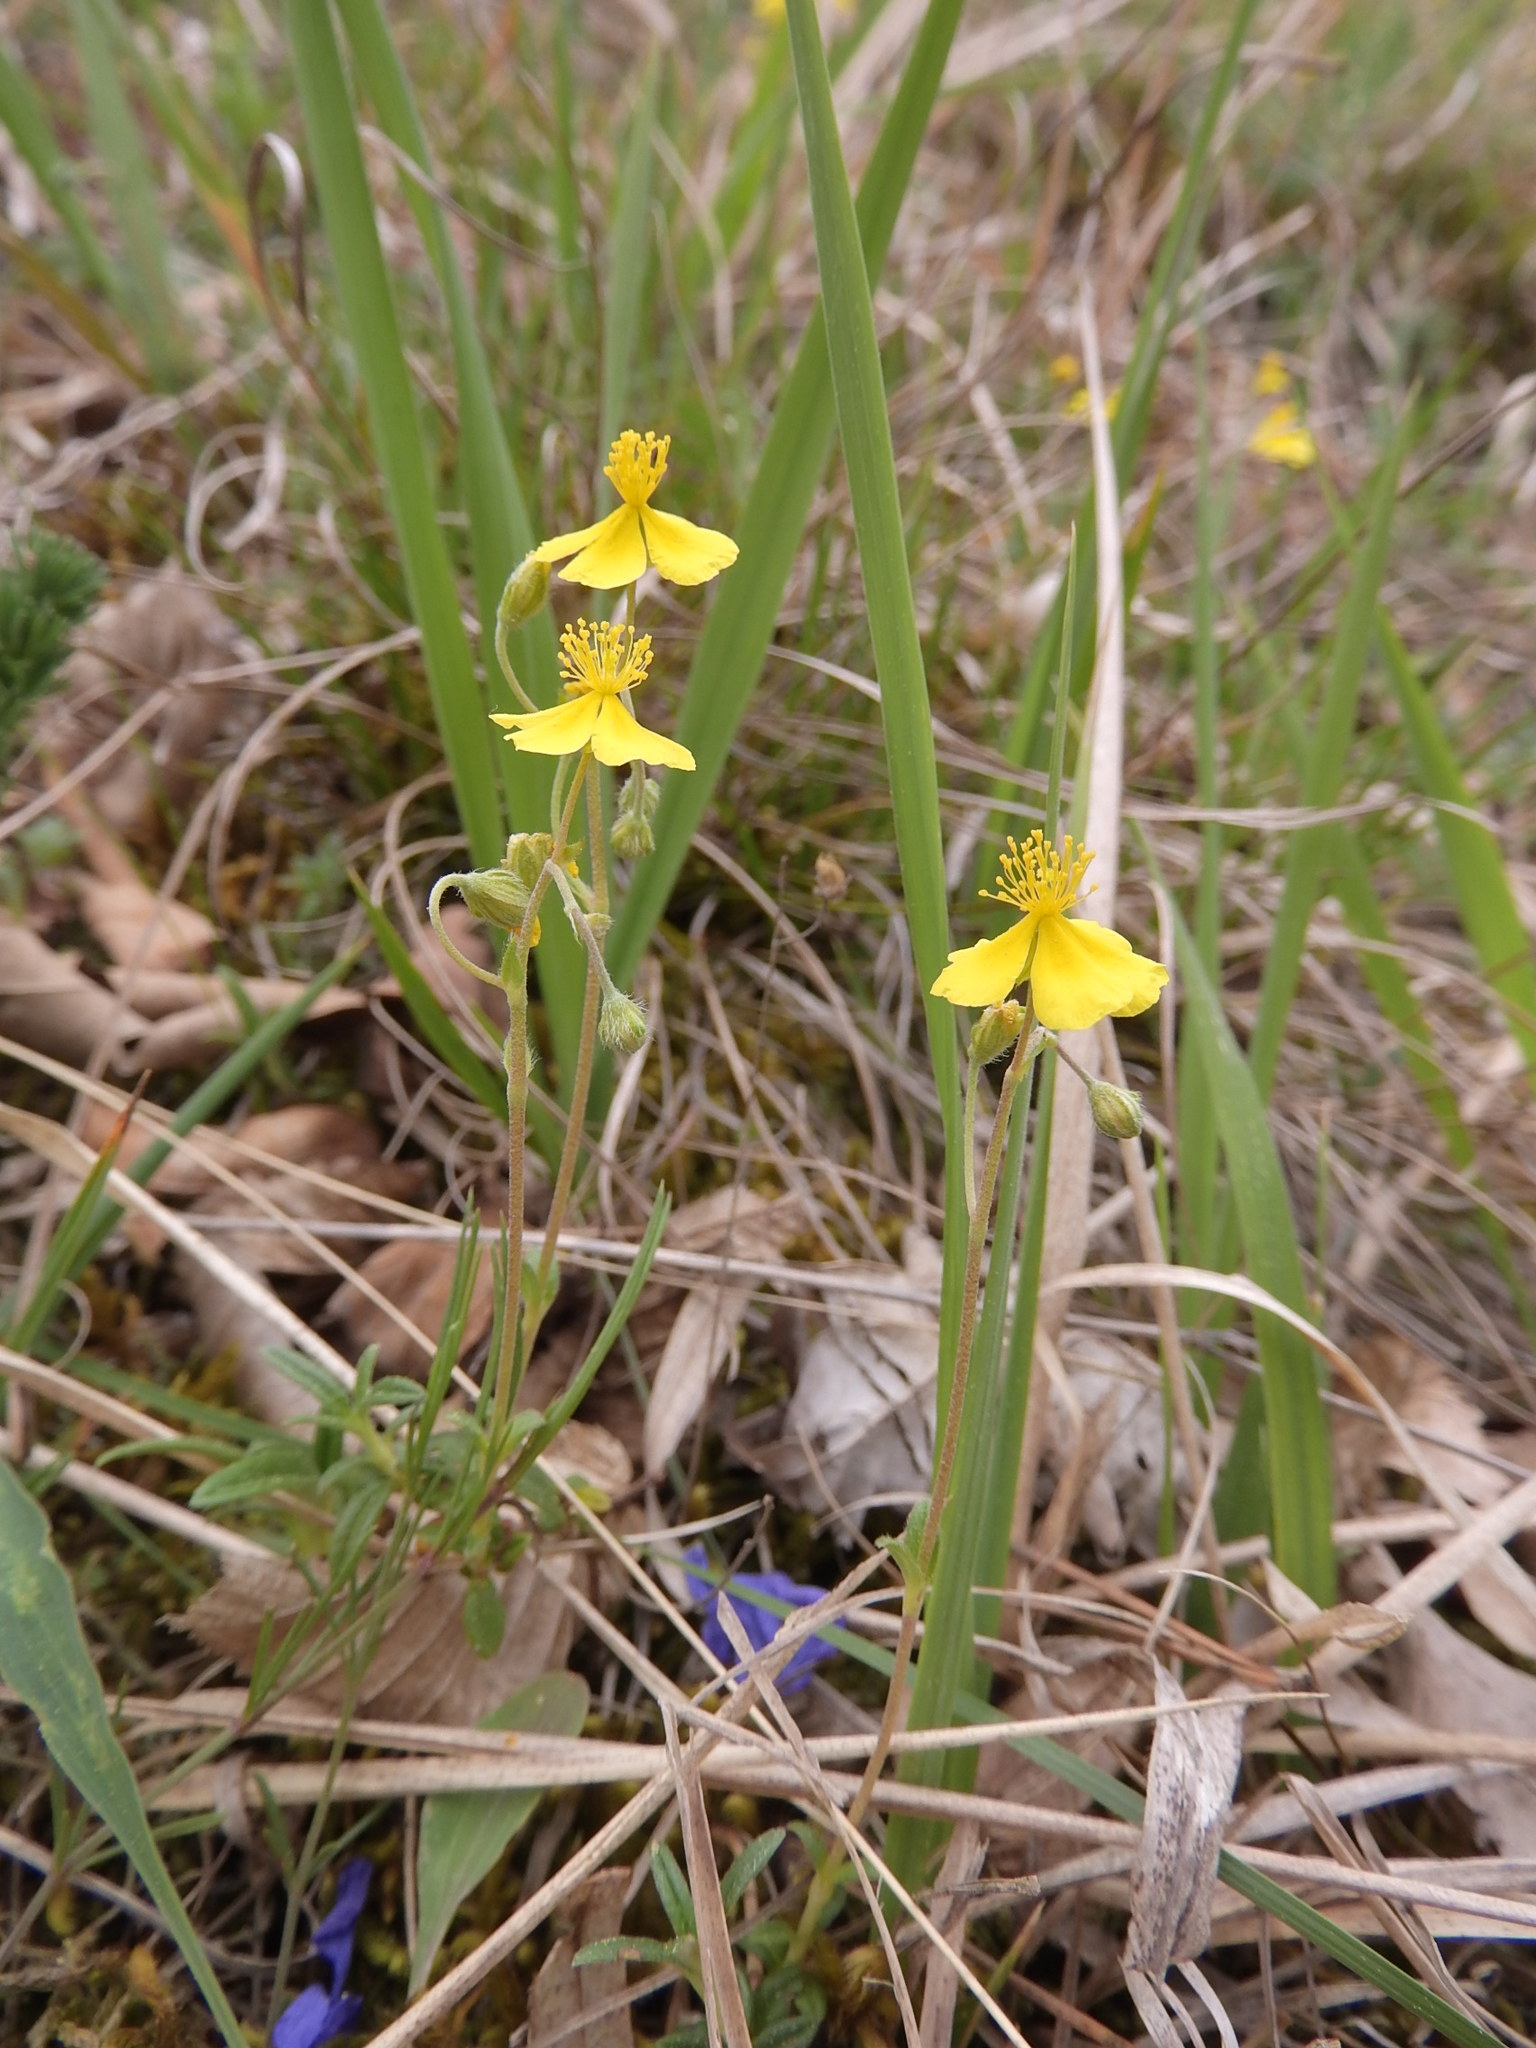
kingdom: Plantae
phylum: Tracheophyta
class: Magnoliopsida
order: Malvales
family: Cistaceae
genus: Helianthemum
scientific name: Helianthemum canum
